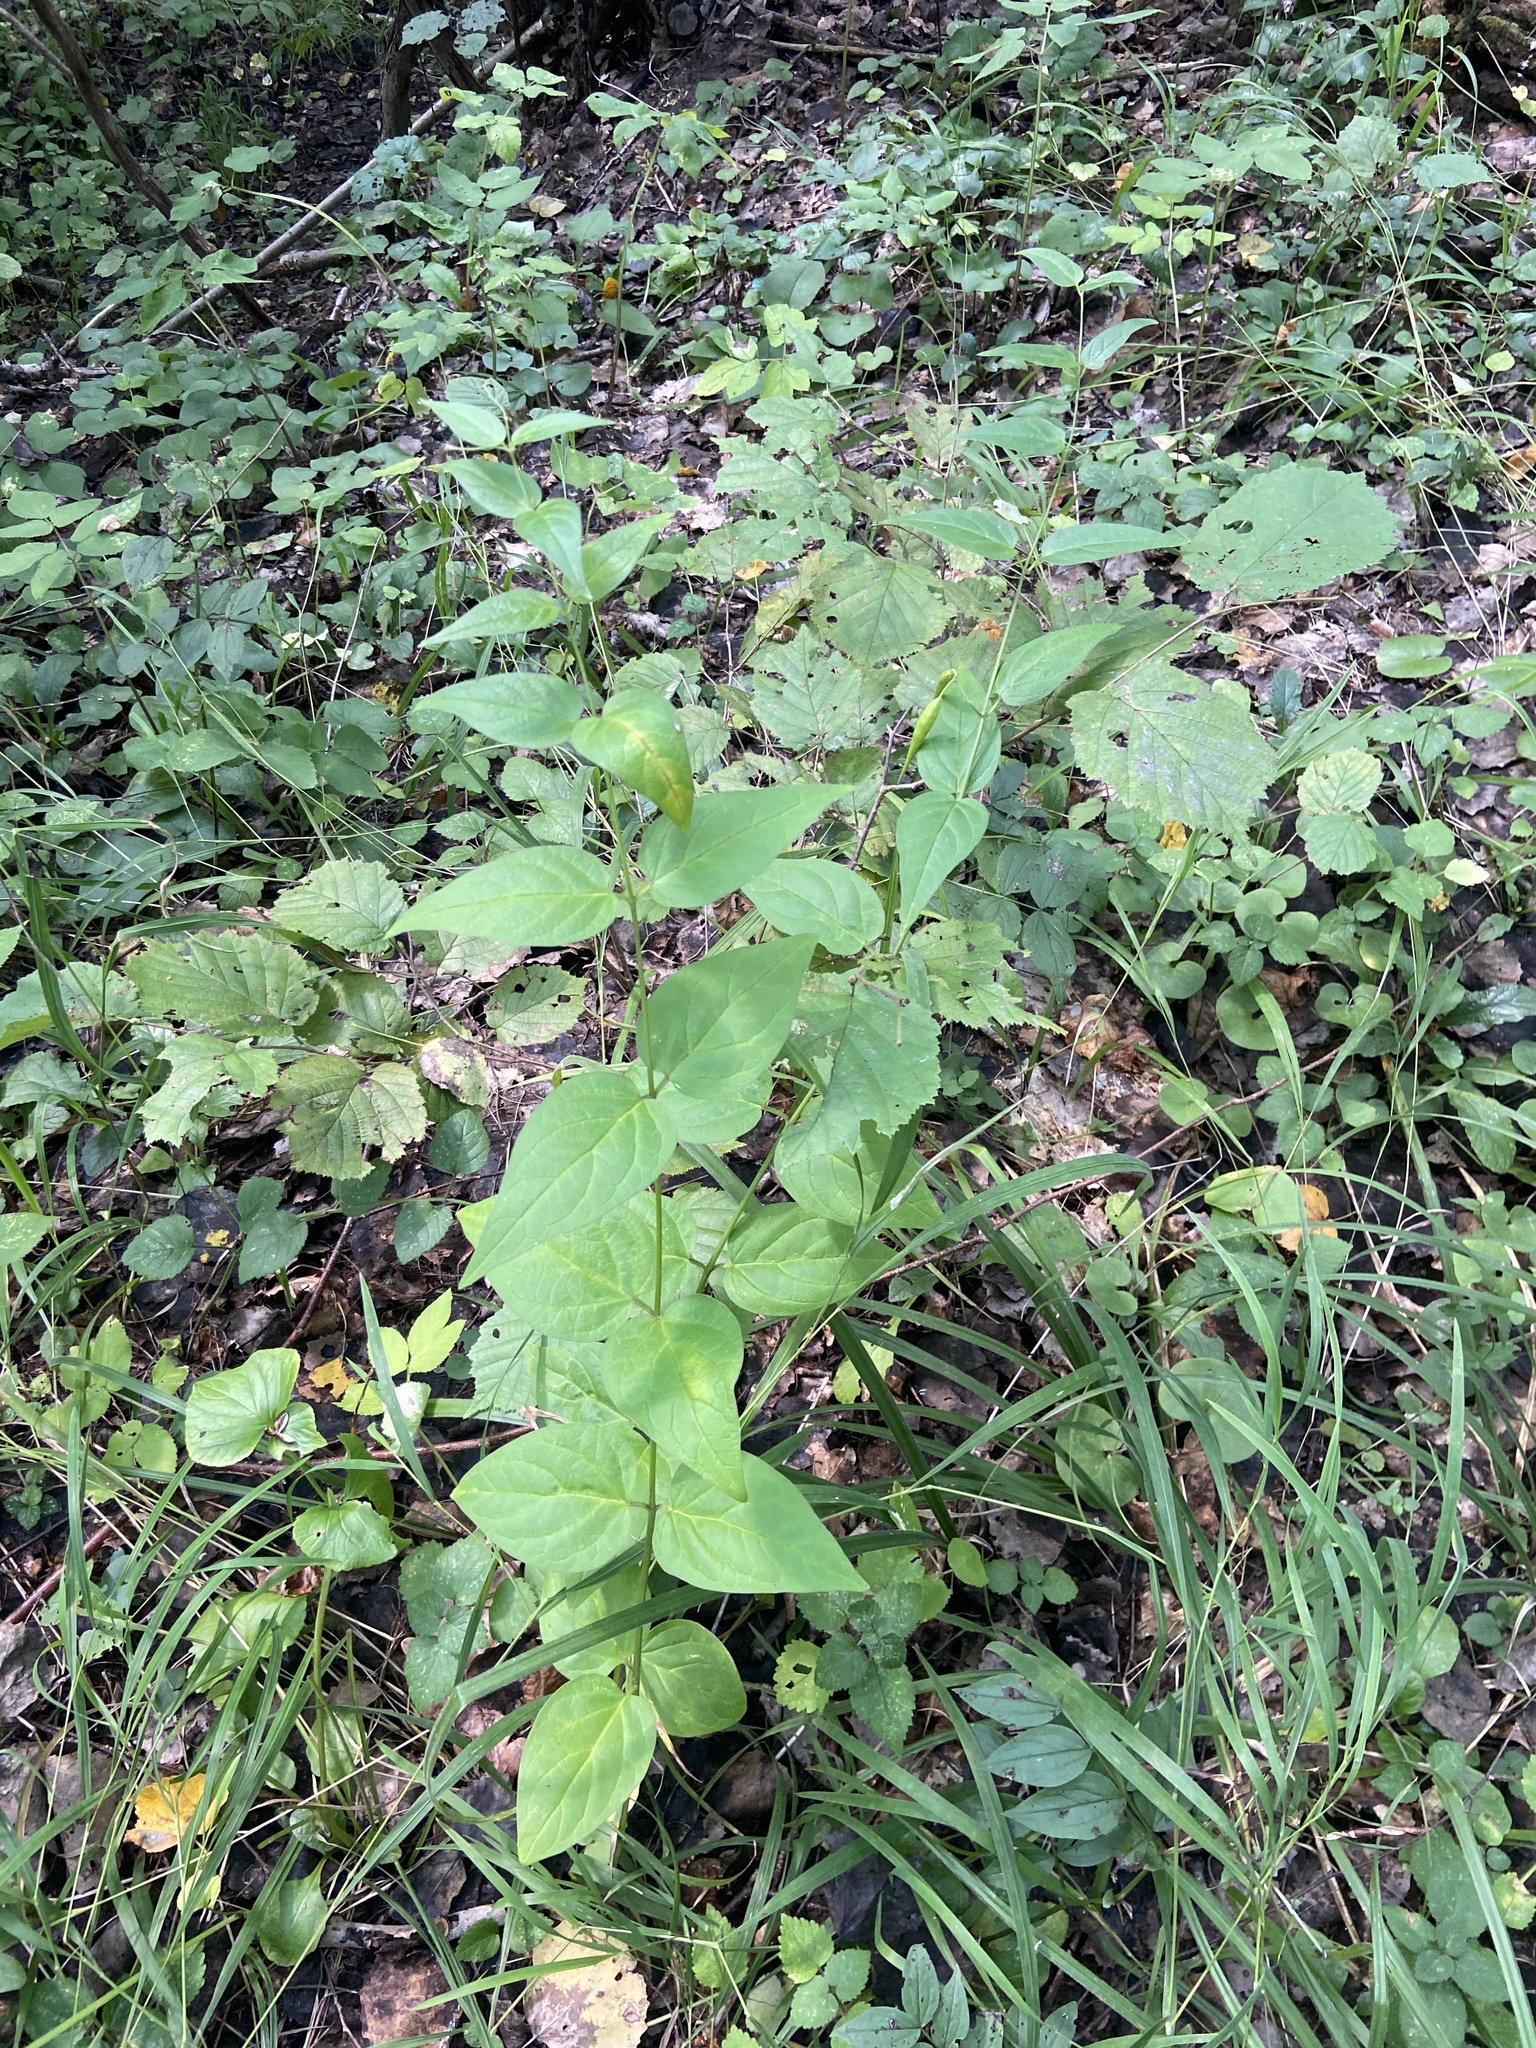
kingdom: Plantae
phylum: Tracheophyta
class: Magnoliopsida
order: Gentianales
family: Apocynaceae
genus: Vincetoxicum
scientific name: Vincetoxicum hirundinaria
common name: White swallowwort
